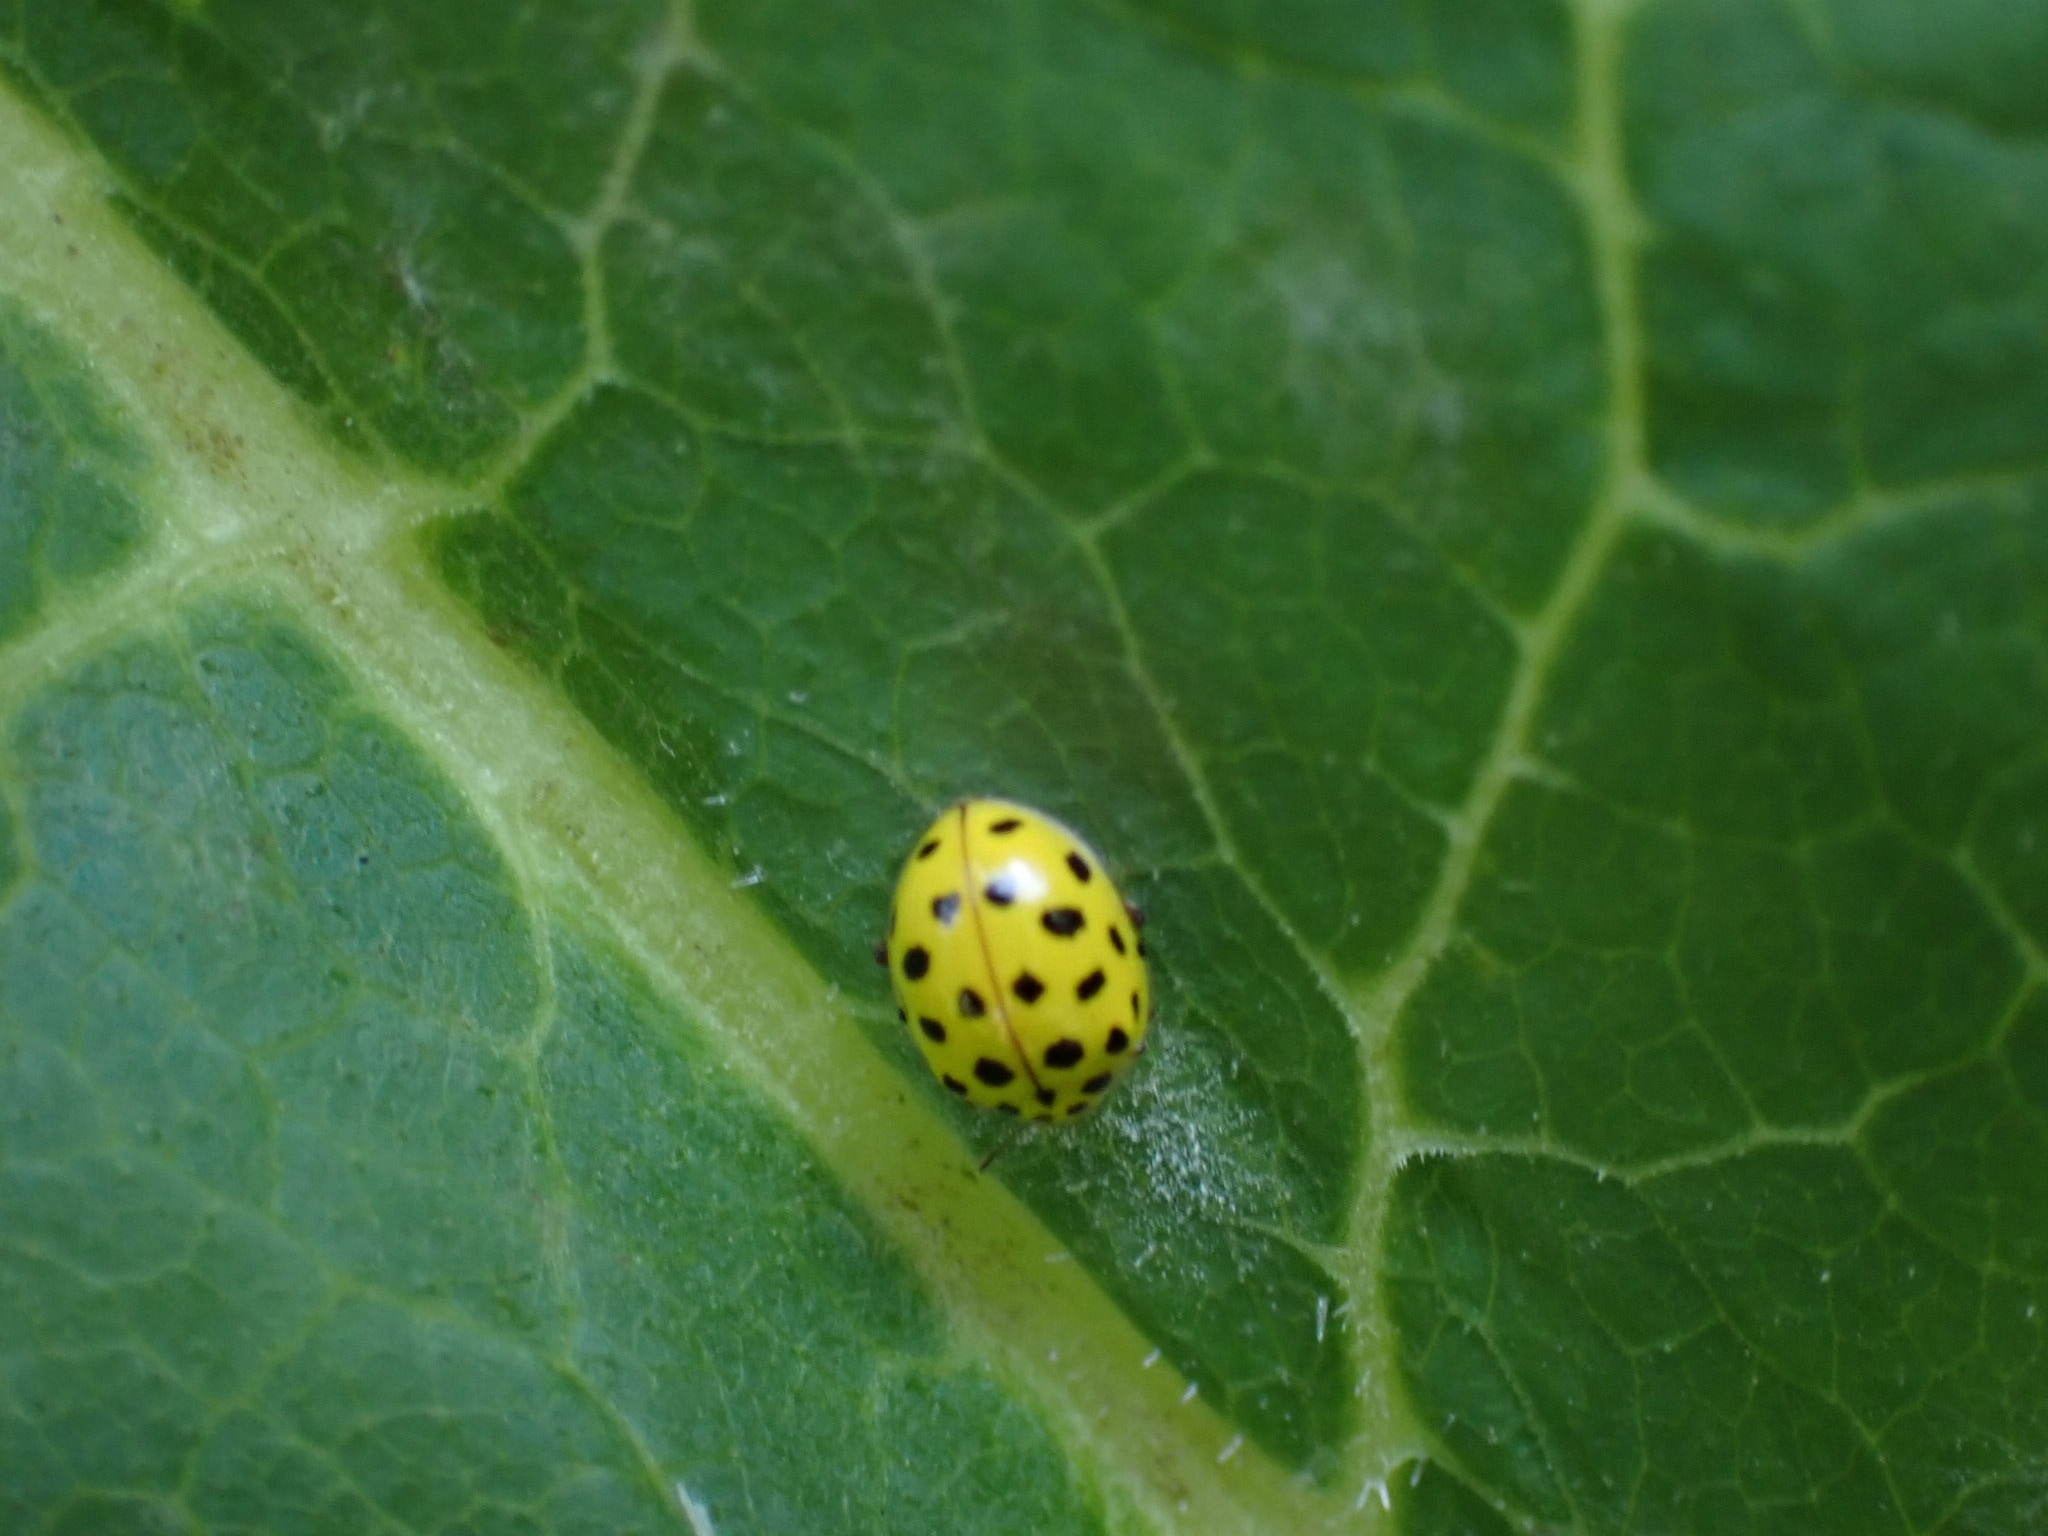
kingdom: Animalia
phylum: Arthropoda
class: Insecta
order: Coleoptera
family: Coccinellidae
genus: Psyllobora
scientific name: Psyllobora vigintiduopunctata
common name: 22-spot ladybird
